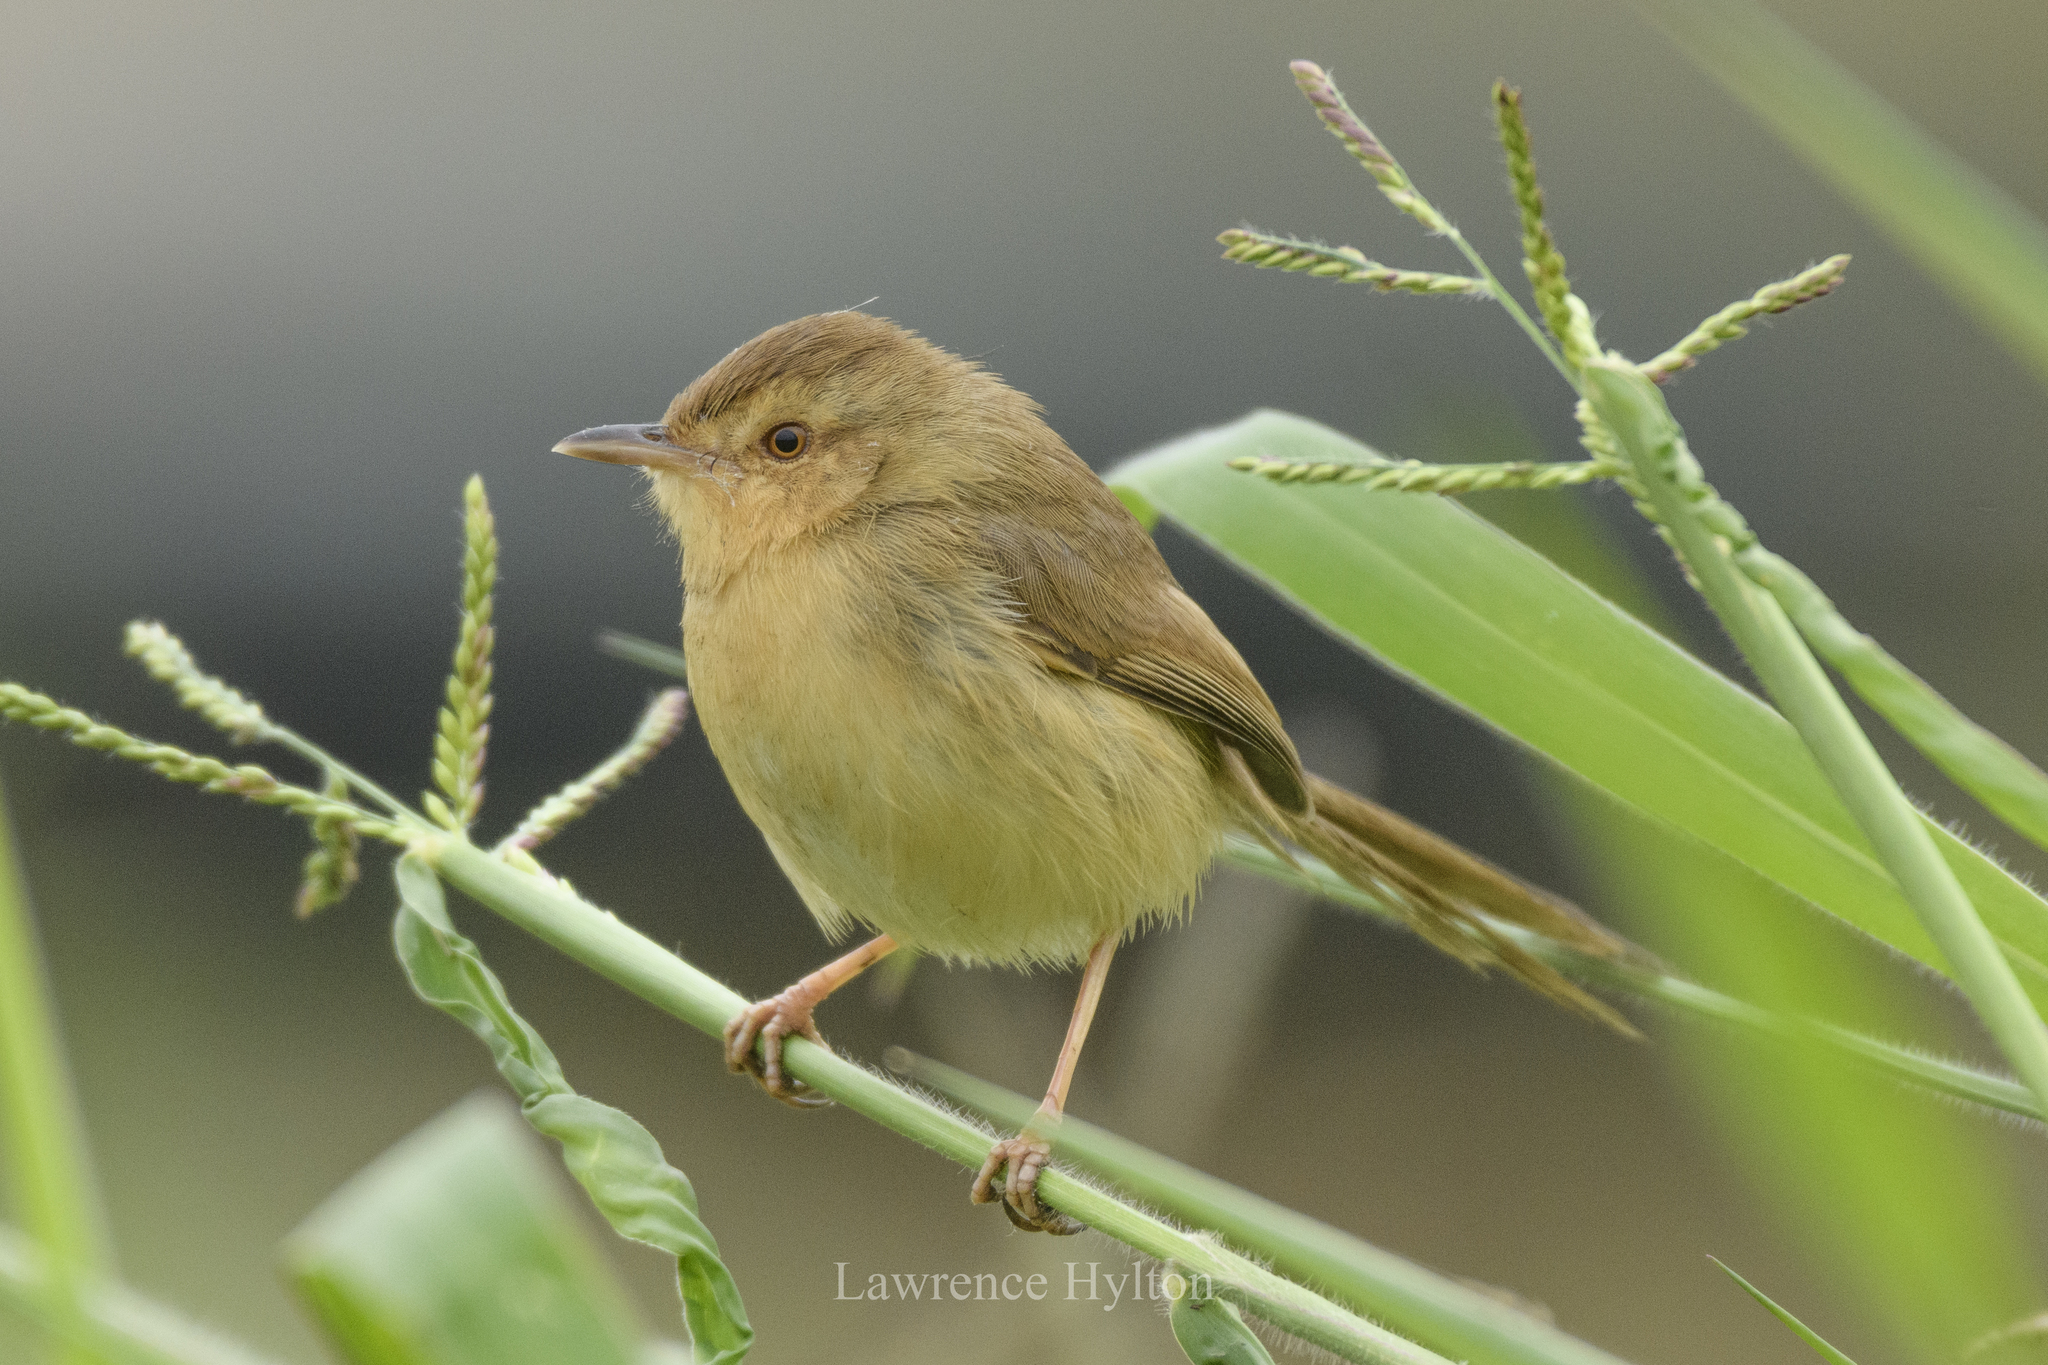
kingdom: Animalia
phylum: Chordata
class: Aves
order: Passeriformes
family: Cisticolidae
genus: Prinia
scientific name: Prinia inornata
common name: Plain prinia
